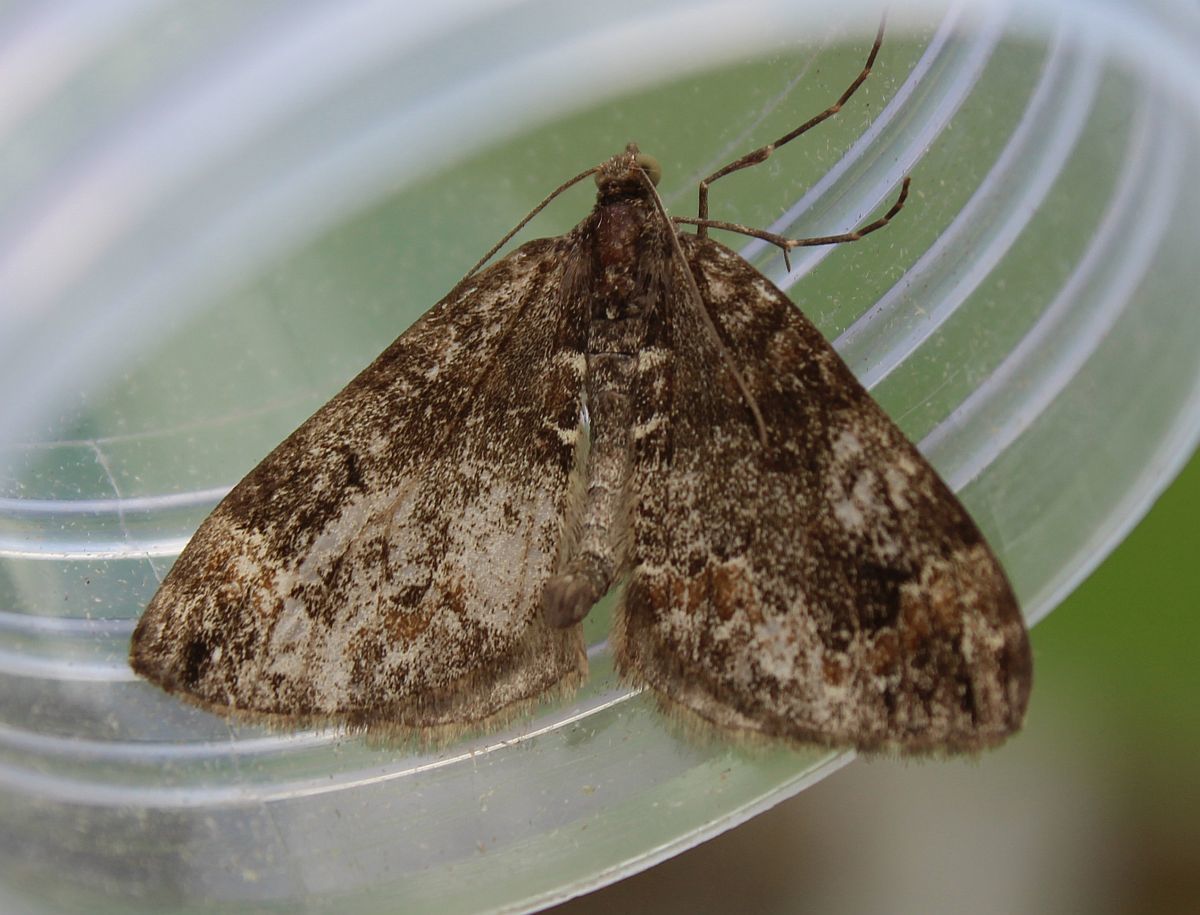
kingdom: Animalia
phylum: Arthropoda
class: Insecta
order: Lepidoptera
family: Geometridae
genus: Dysstroma
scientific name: Dysstroma truncata
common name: Common marbled carpet
